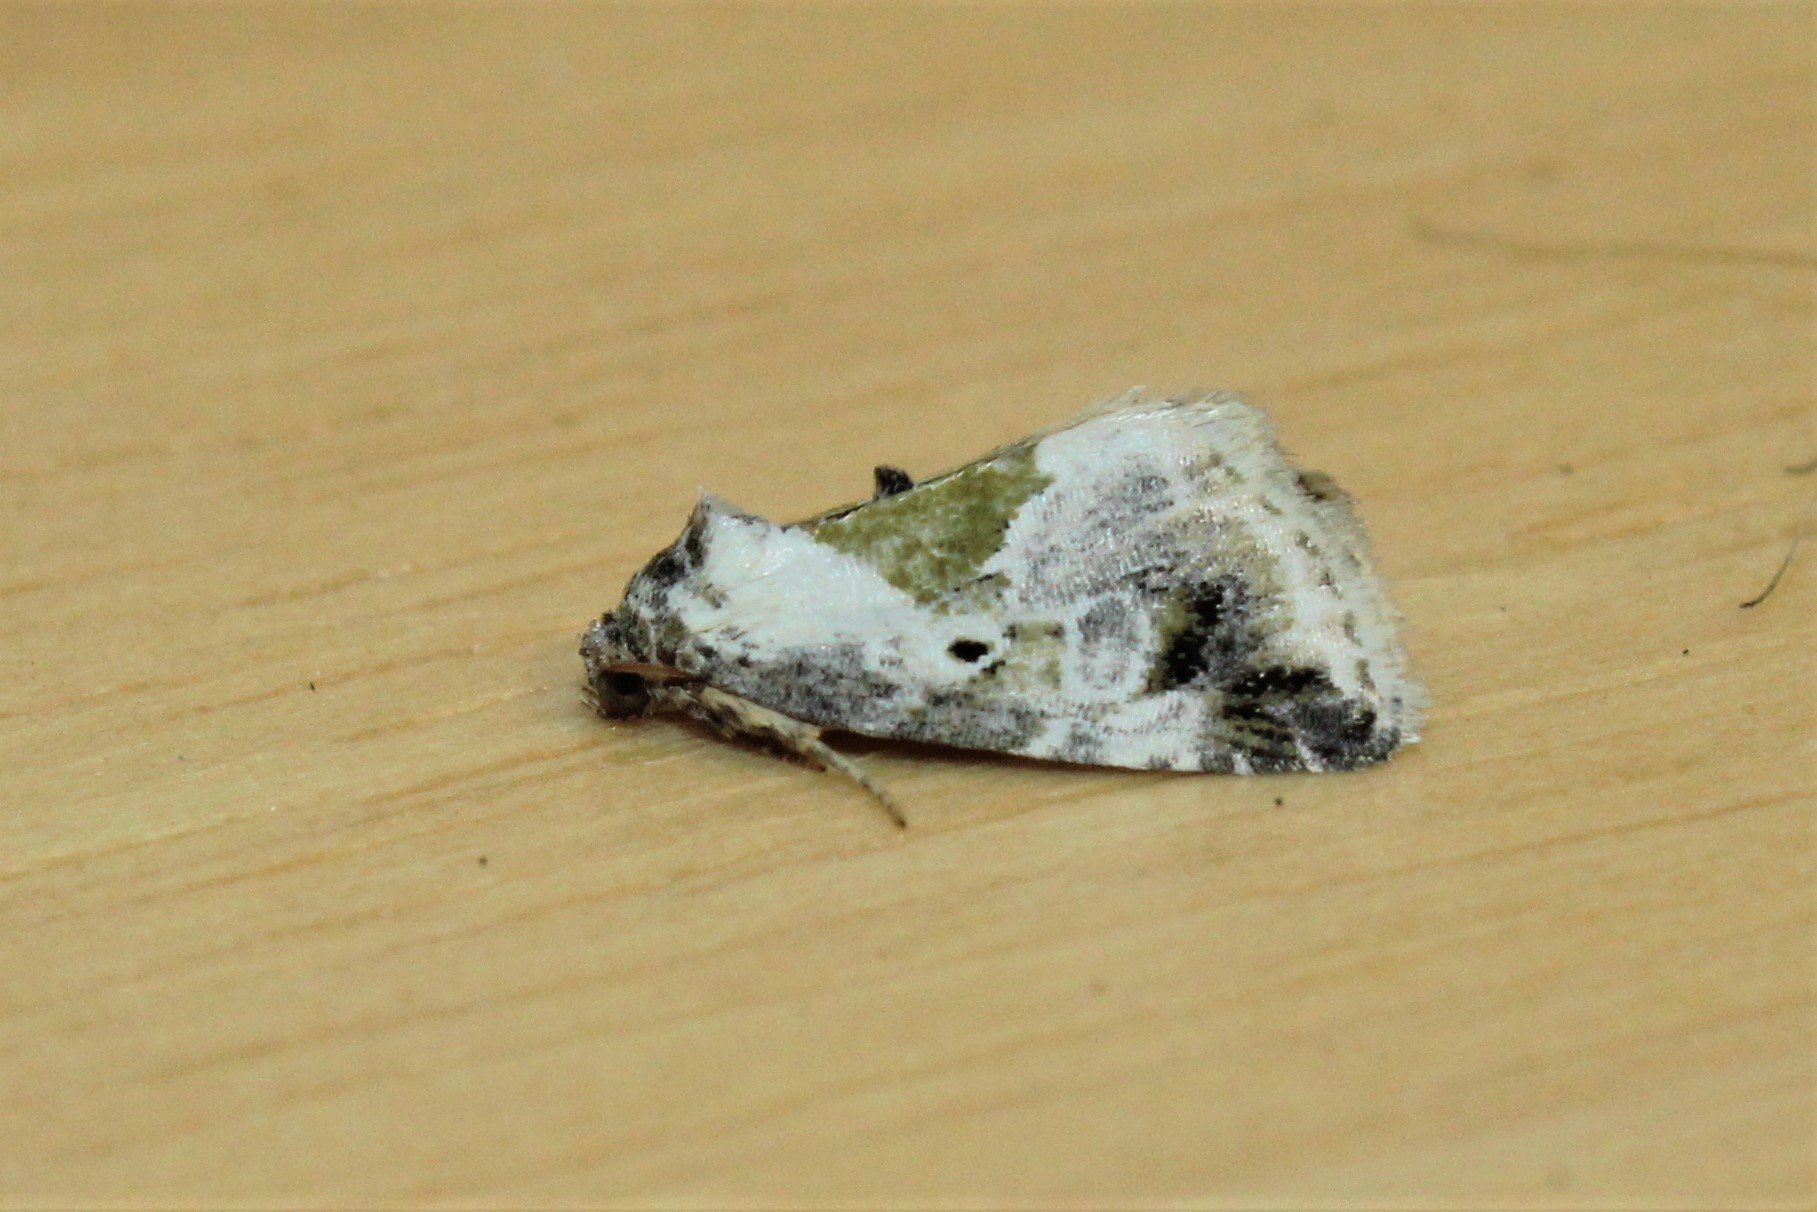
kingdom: Animalia
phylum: Arthropoda
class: Insecta
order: Lepidoptera
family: Noctuidae
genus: Maliattha
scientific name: Maliattha synochitis
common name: Black-dotted glyph
